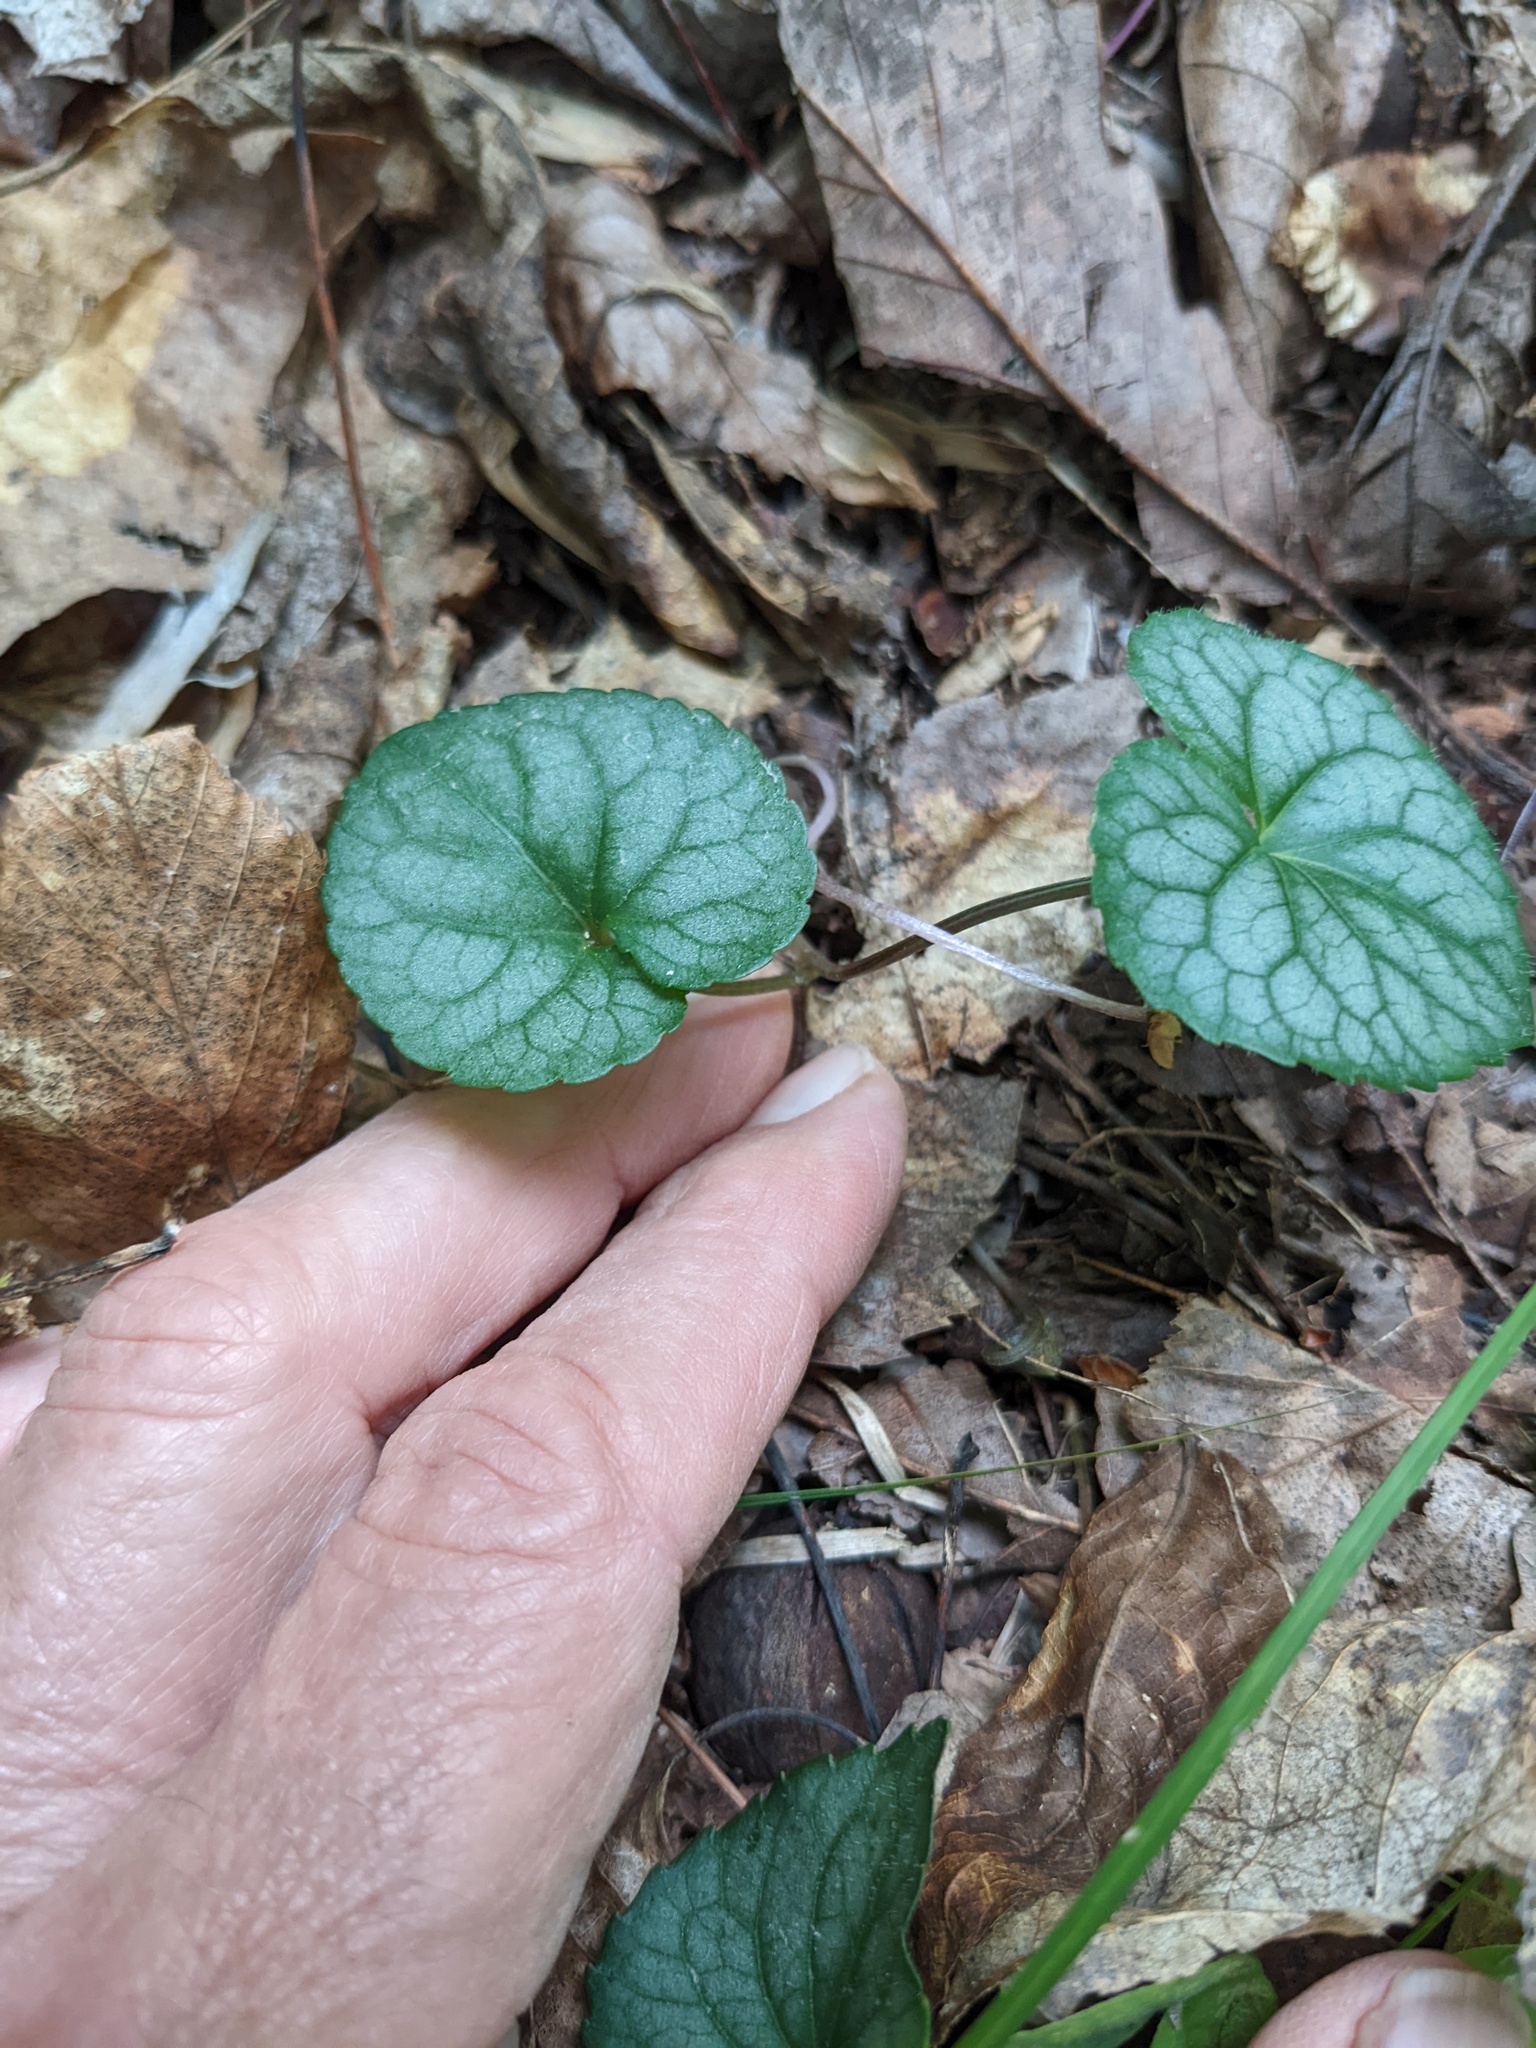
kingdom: Plantae
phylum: Tracheophyta
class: Magnoliopsida
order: Malpighiales
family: Violaceae
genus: Viola
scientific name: Viola hirsutula
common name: Southern wood violet
